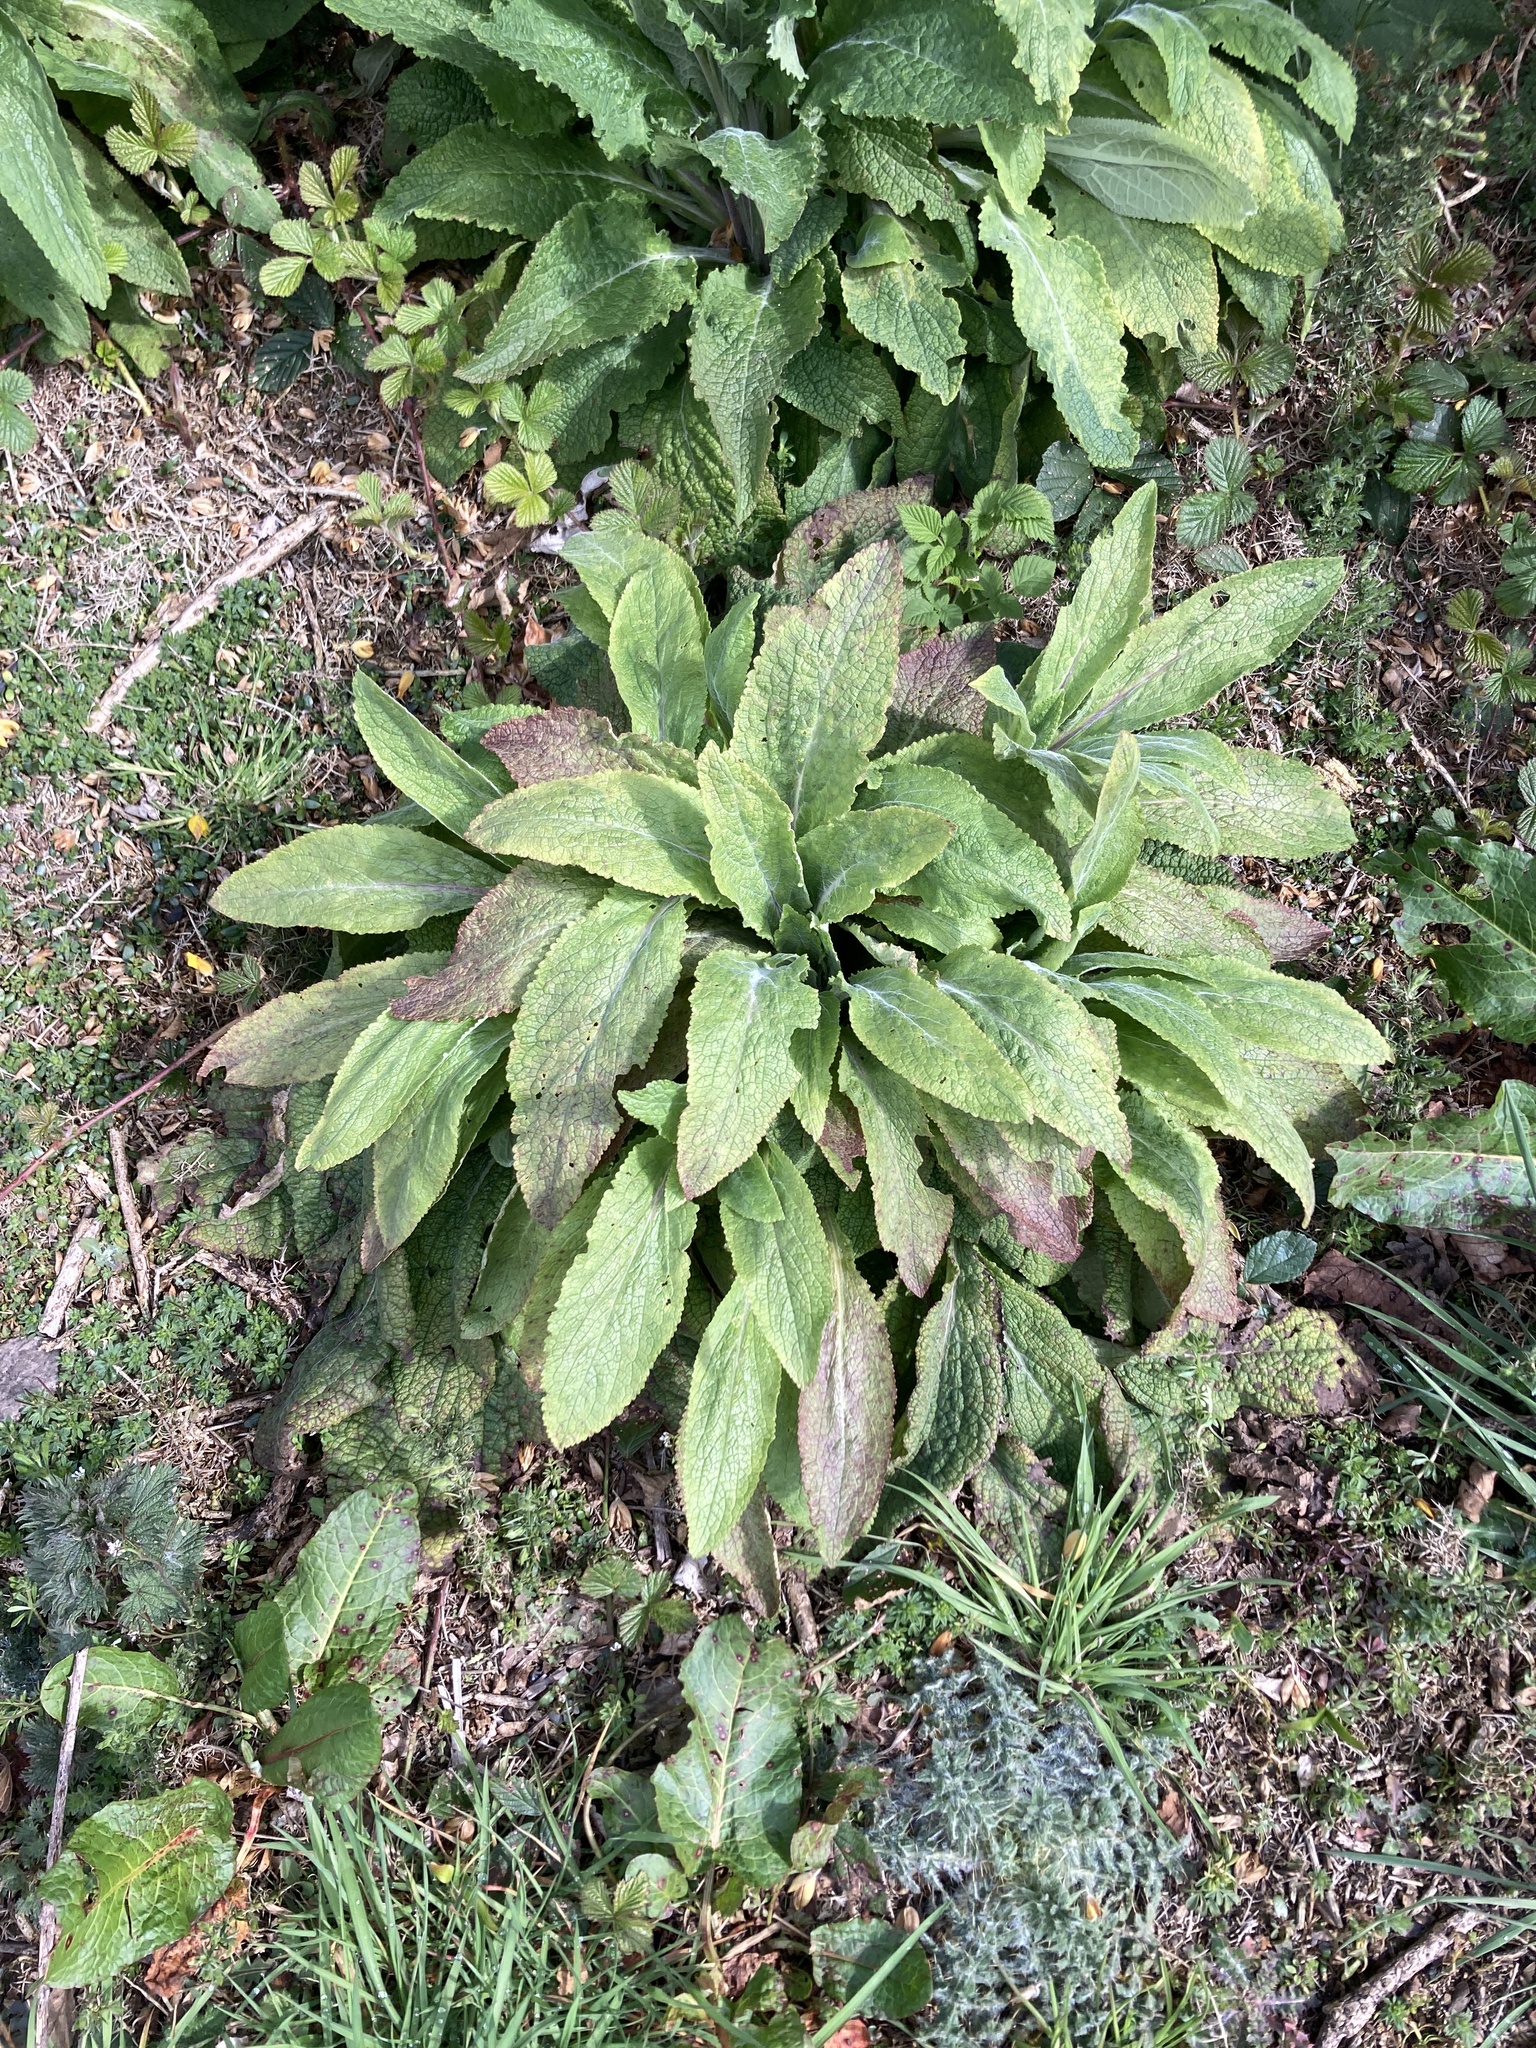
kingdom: Plantae
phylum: Tracheophyta
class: Magnoliopsida
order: Lamiales
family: Plantaginaceae
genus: Digitalis
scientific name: Digitalis purpurea
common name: Foxglove
